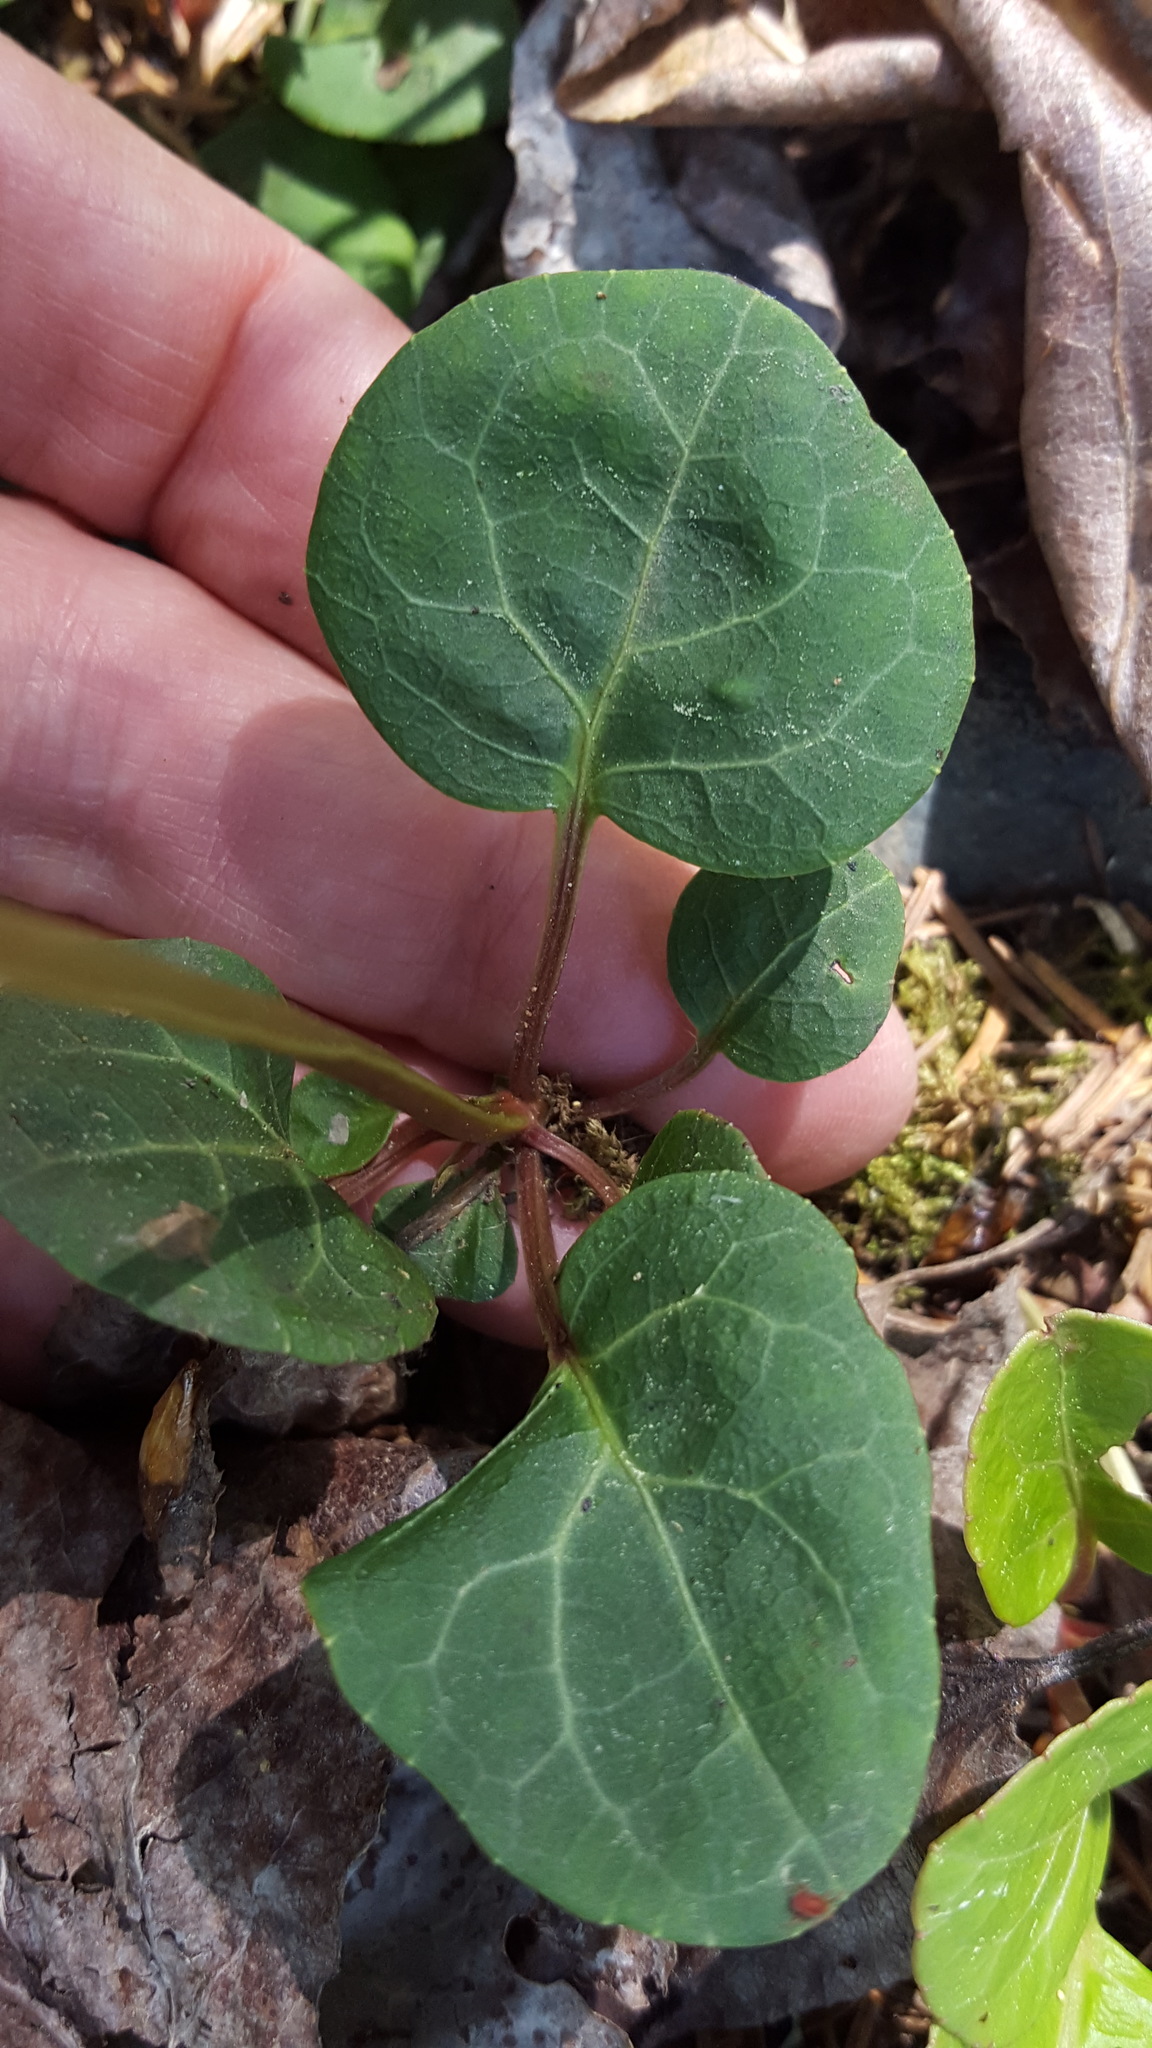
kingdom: Plantae
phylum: Tracheophyta
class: Magnoliopsida
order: Ericales
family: Ericaceae
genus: Pyrola
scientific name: Pyrola chlorantha
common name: Green wintergreen
